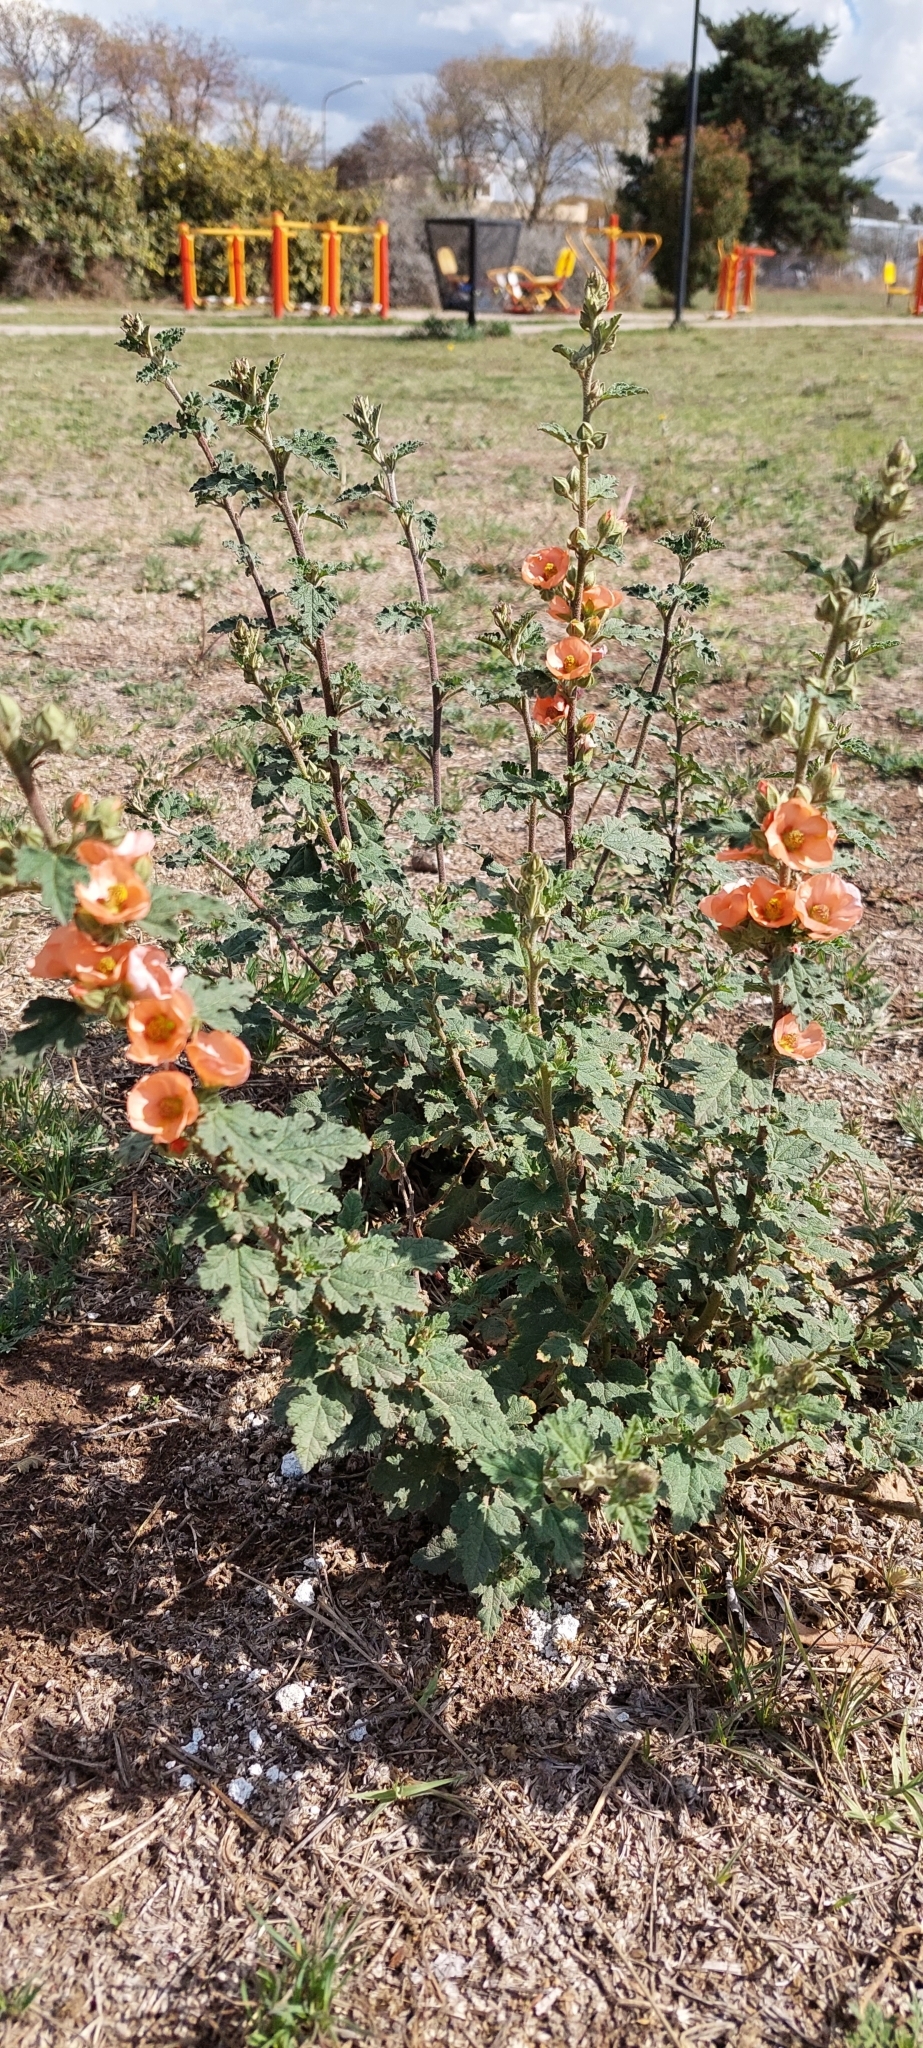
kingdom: Plantae
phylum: Tracheophyta
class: Magnoliopsida
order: Malvales
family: Malvaceae
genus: Sphaeralcea
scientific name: Sphaeralcea bonariensis
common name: Latin globemallow
